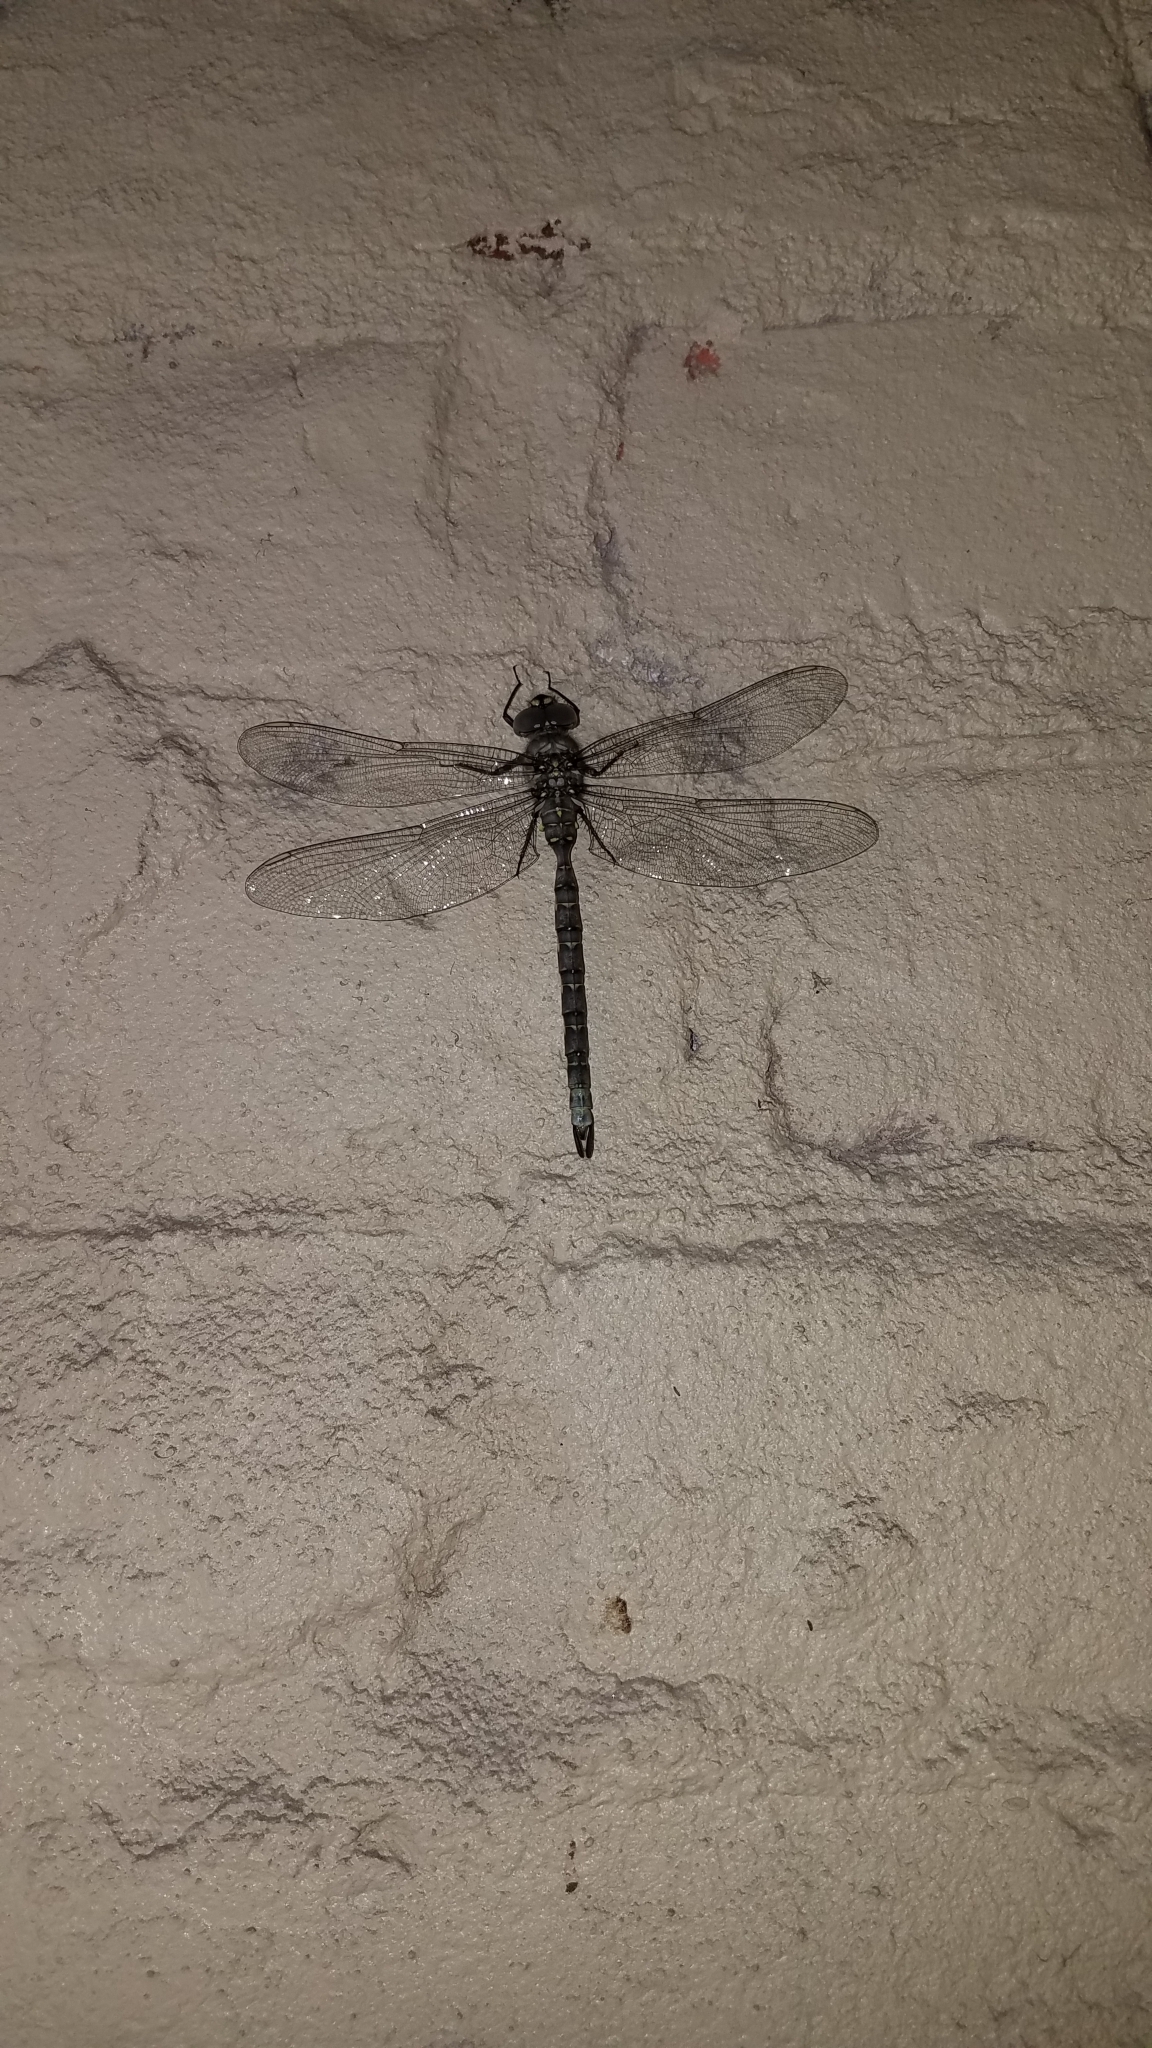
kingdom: Animalia
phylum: Arthropoda
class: Insecta
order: Odonata
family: Aeshnidae
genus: Boyeria
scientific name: Boyeria grafiana
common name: Ocellated darner
